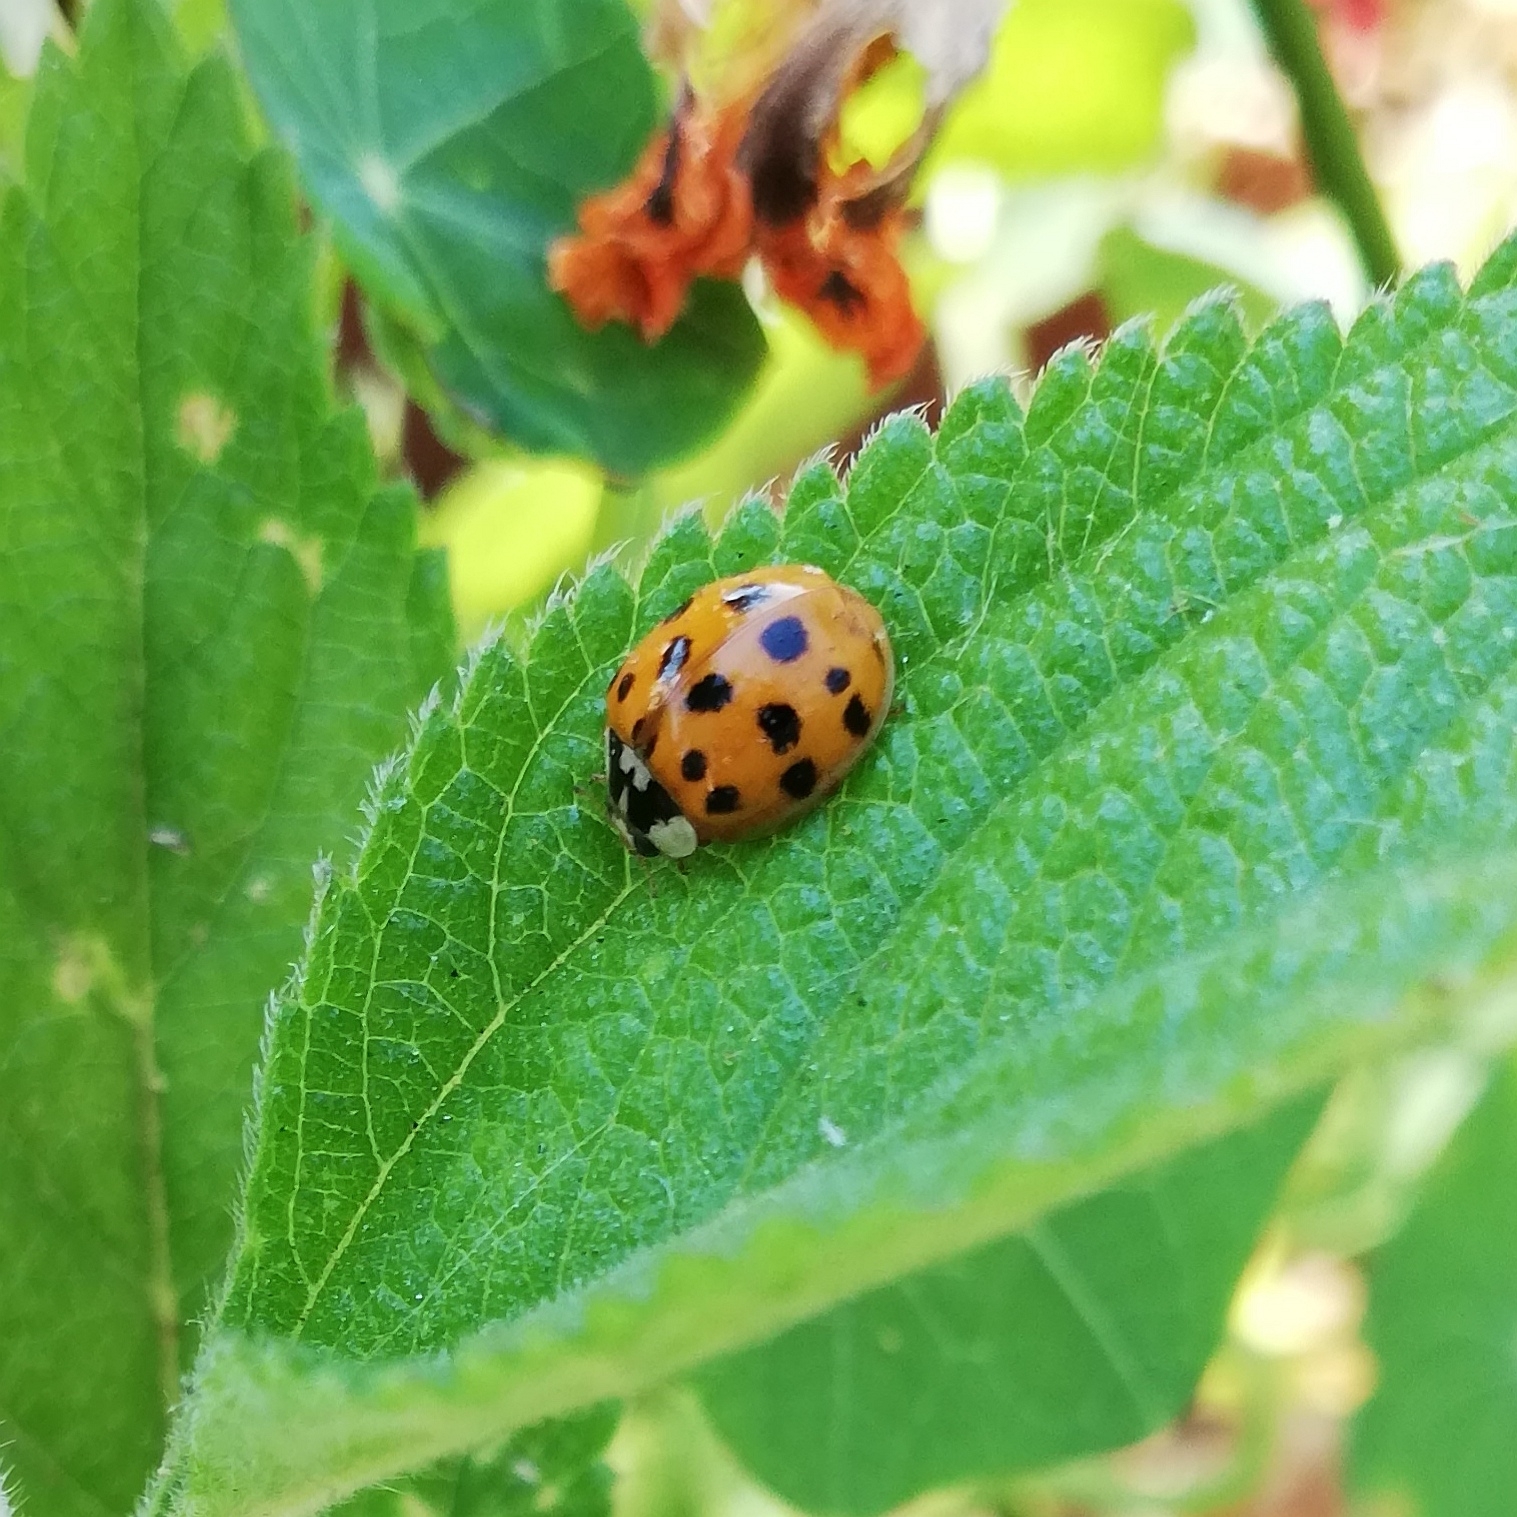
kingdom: Animalia
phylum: Arthropoda
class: Insecta
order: Coleoptera
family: Coccinellidae
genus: Harmonia
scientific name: Harmonia axyridis
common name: Harlequin ladybird
